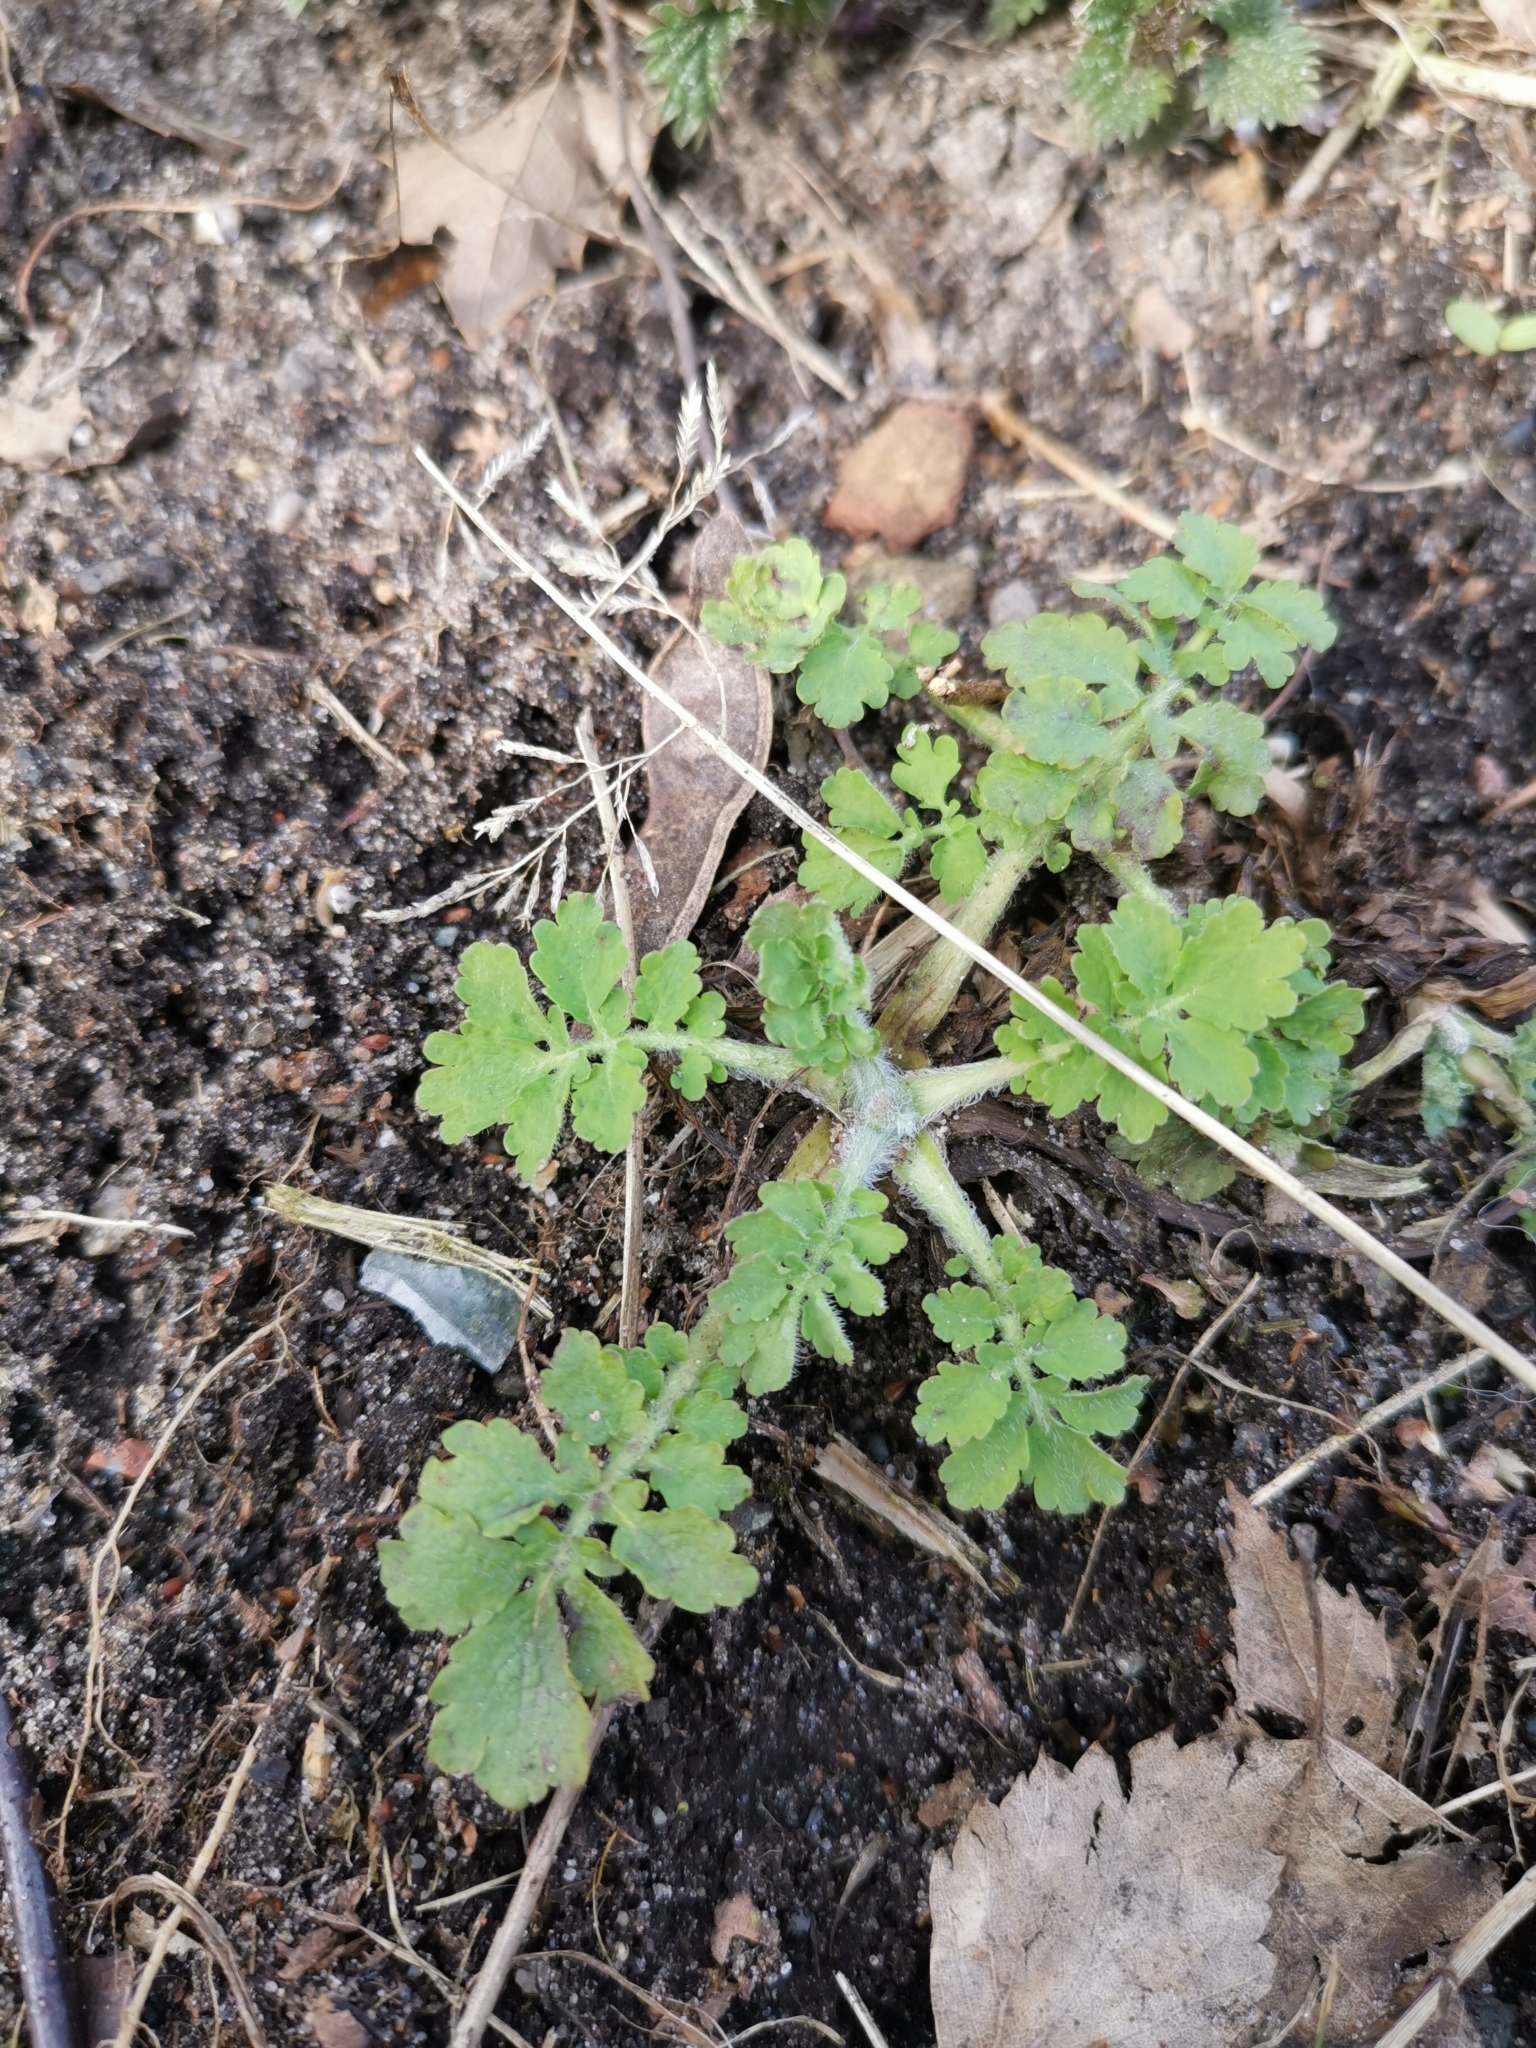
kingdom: Plantae
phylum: Tracheophyta
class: Magnoliopsida
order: Ranunculales
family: Papaveraceae
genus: Chelidonium
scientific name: Chelidonium majus
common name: Greater celandine
